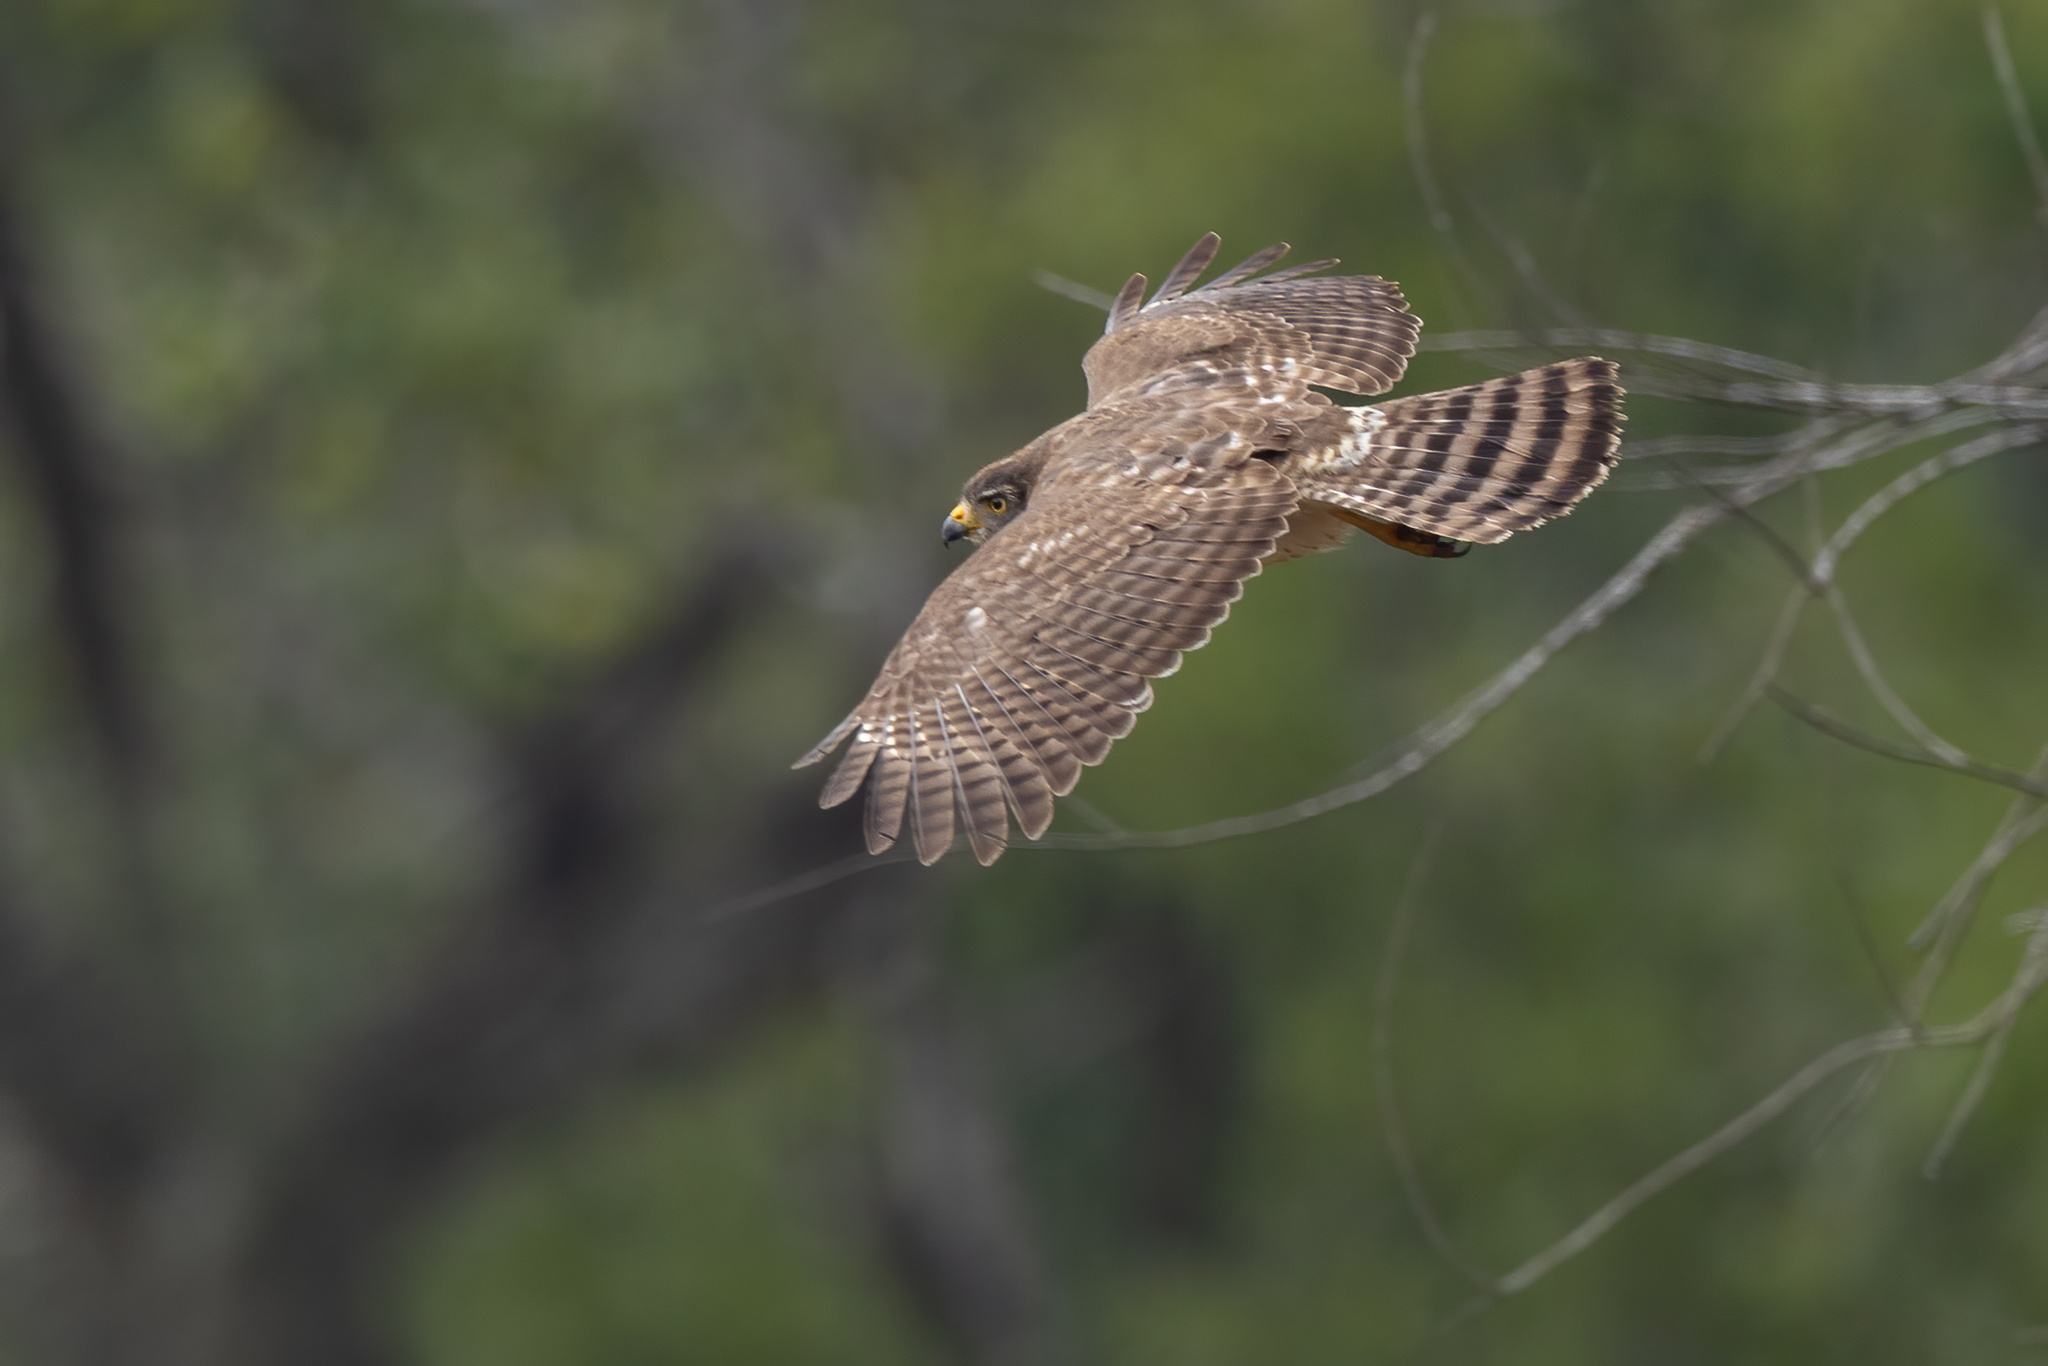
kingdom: Animalia
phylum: Chordata
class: Aves
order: Accipitriformes
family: Accipitridae
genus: Rupornis
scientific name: Rupornis magnirostris
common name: Roadside hawk
